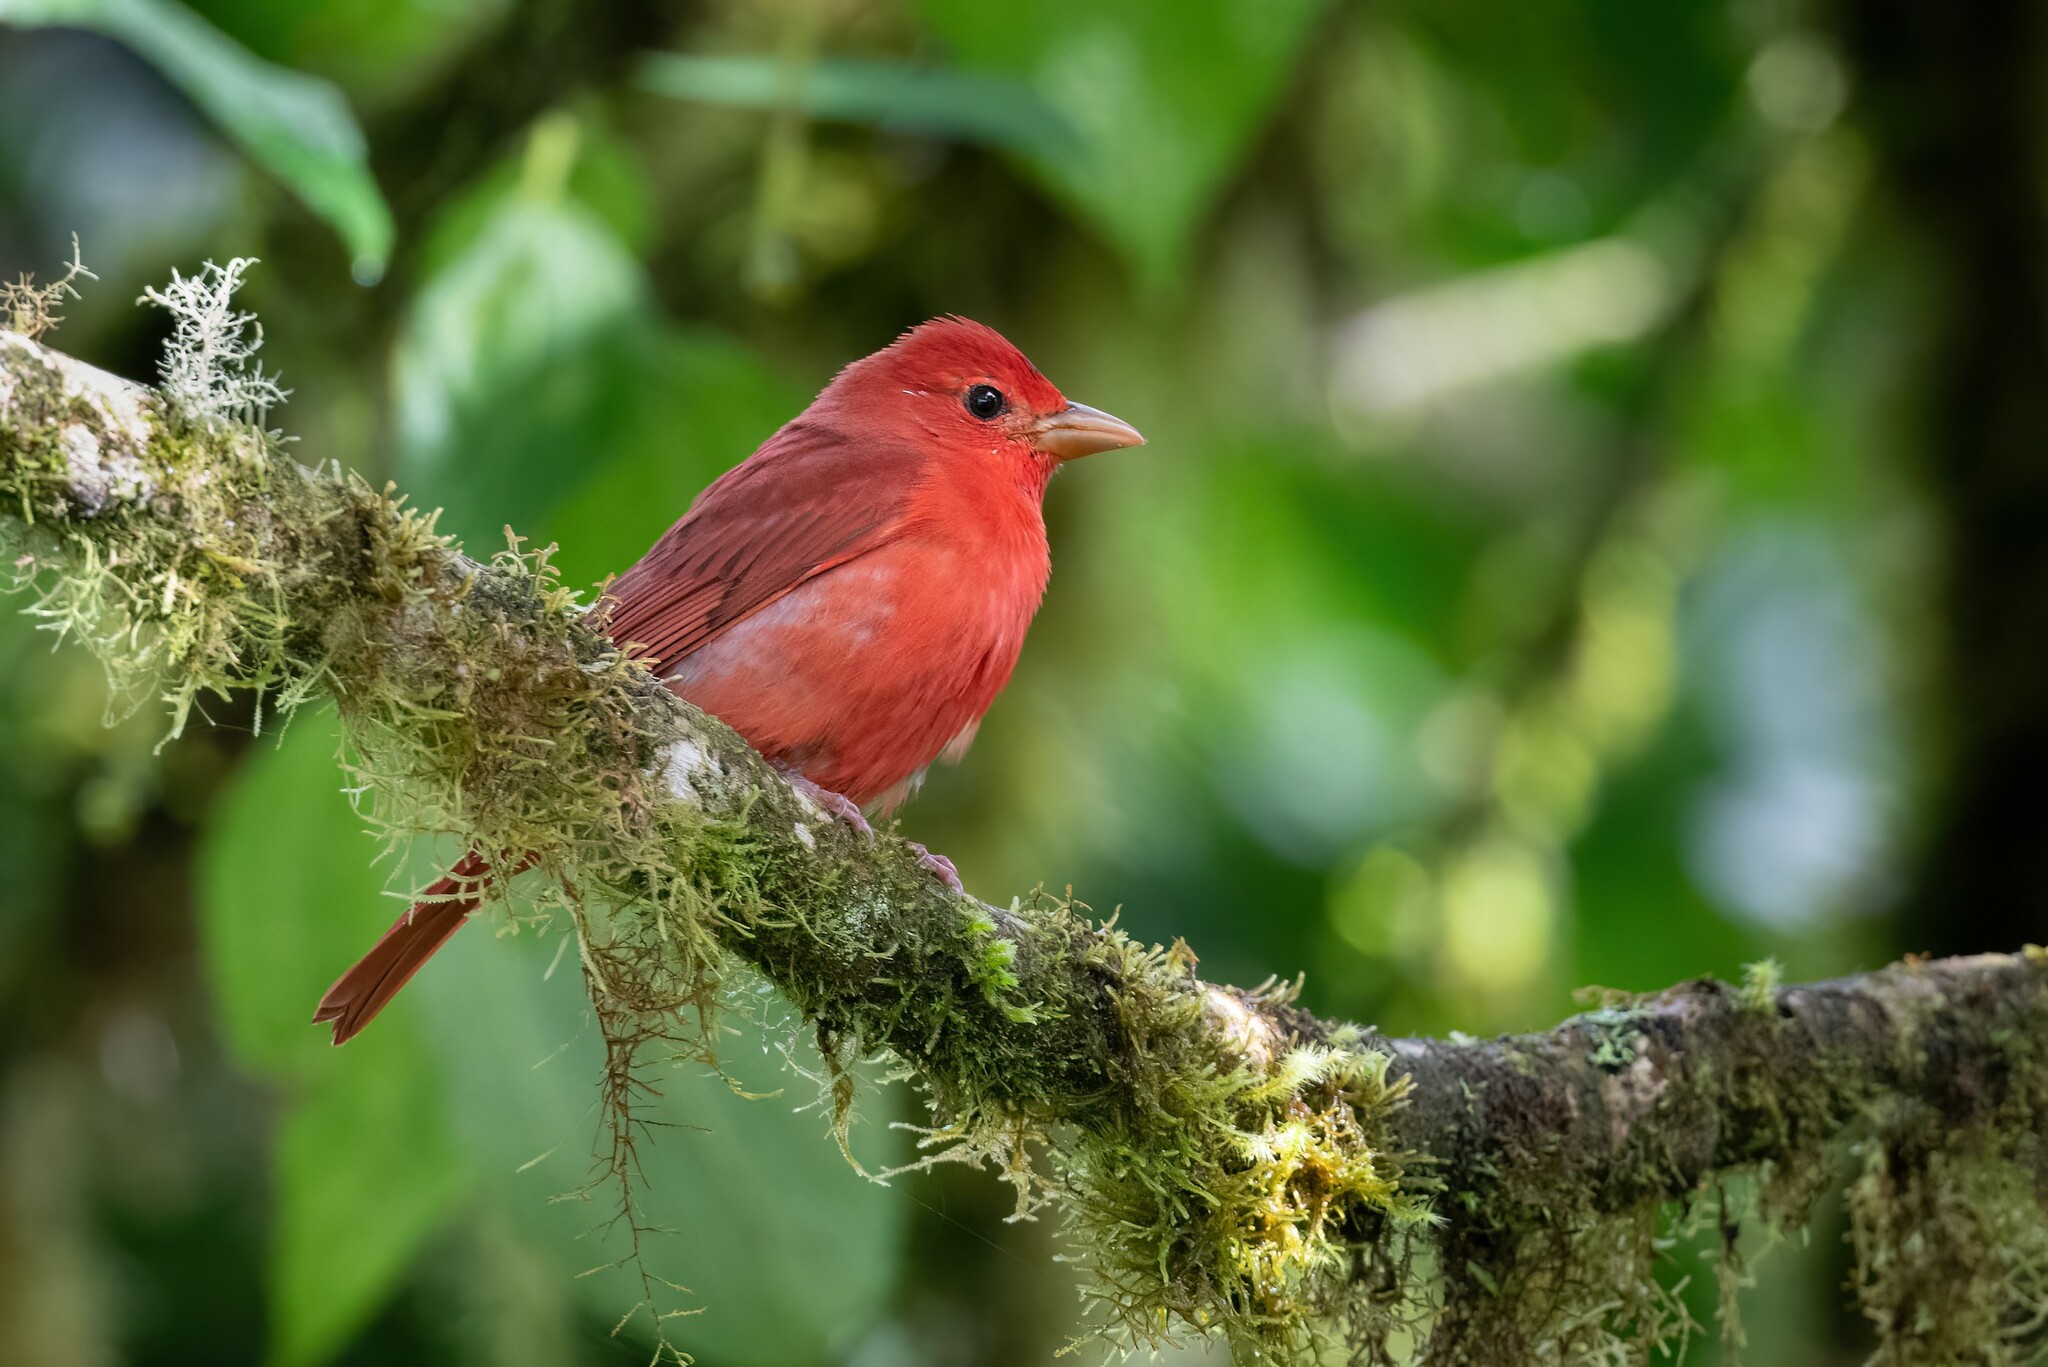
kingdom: Animalia
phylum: Chordata
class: Aves
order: Passeriformes
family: Cardinalidae
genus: Piranga
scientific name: Piranga rubra
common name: Summer tanager
